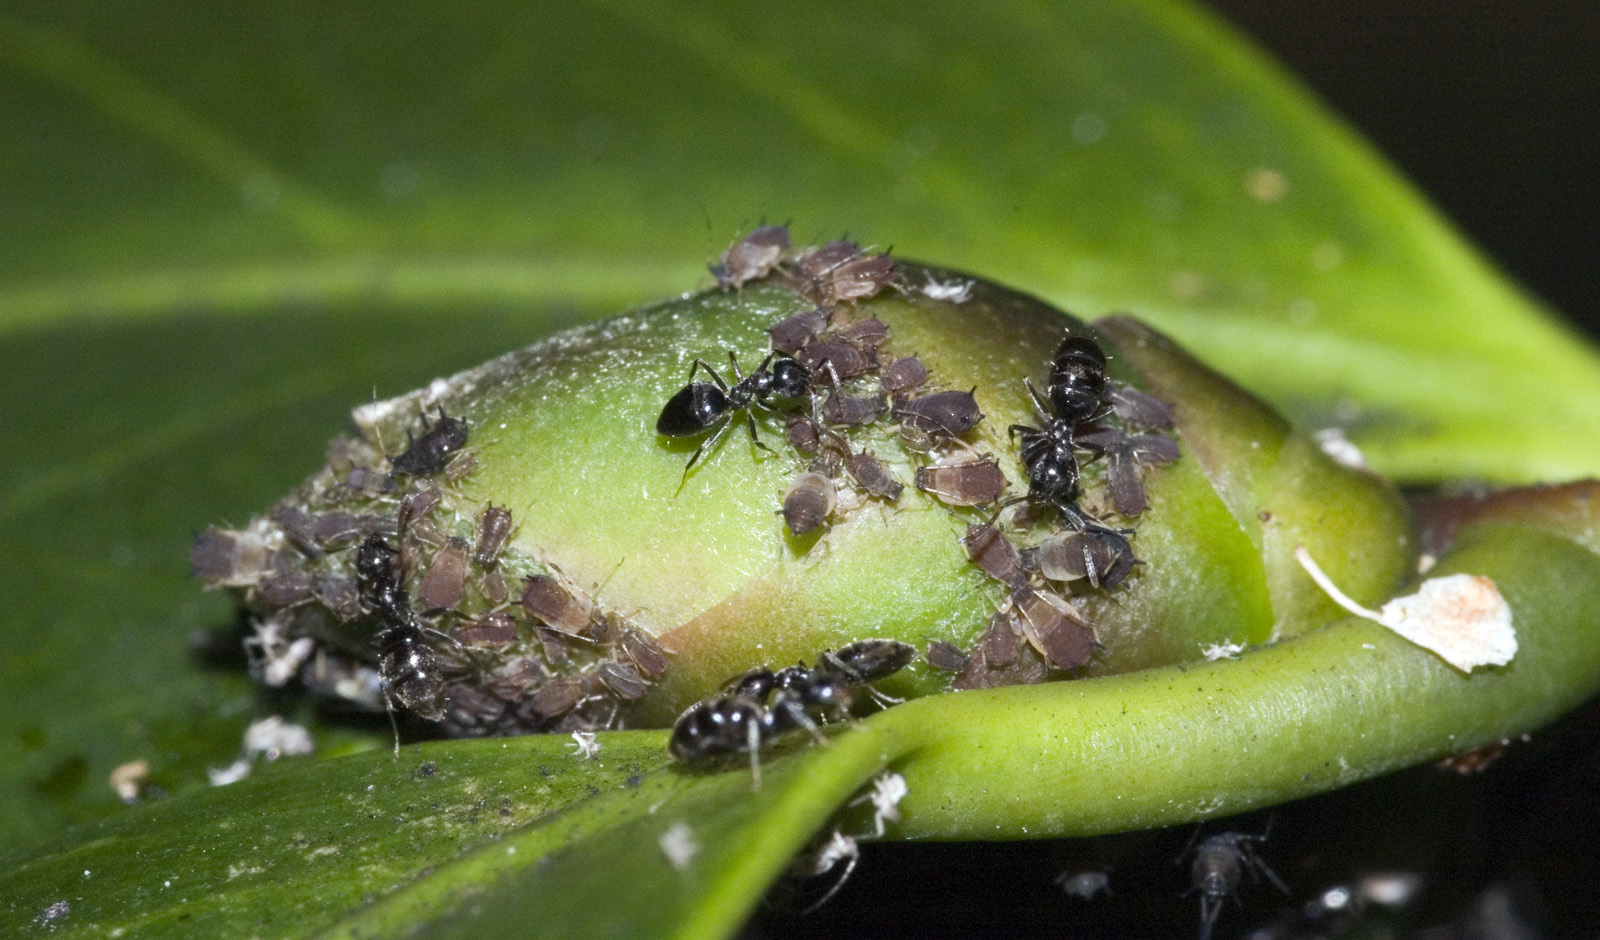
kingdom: Animalia
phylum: Arthropoda
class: Insecta
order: Hymenoptera
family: Formicidae
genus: Technomyrmex
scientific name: Technomyrmex jocosus
